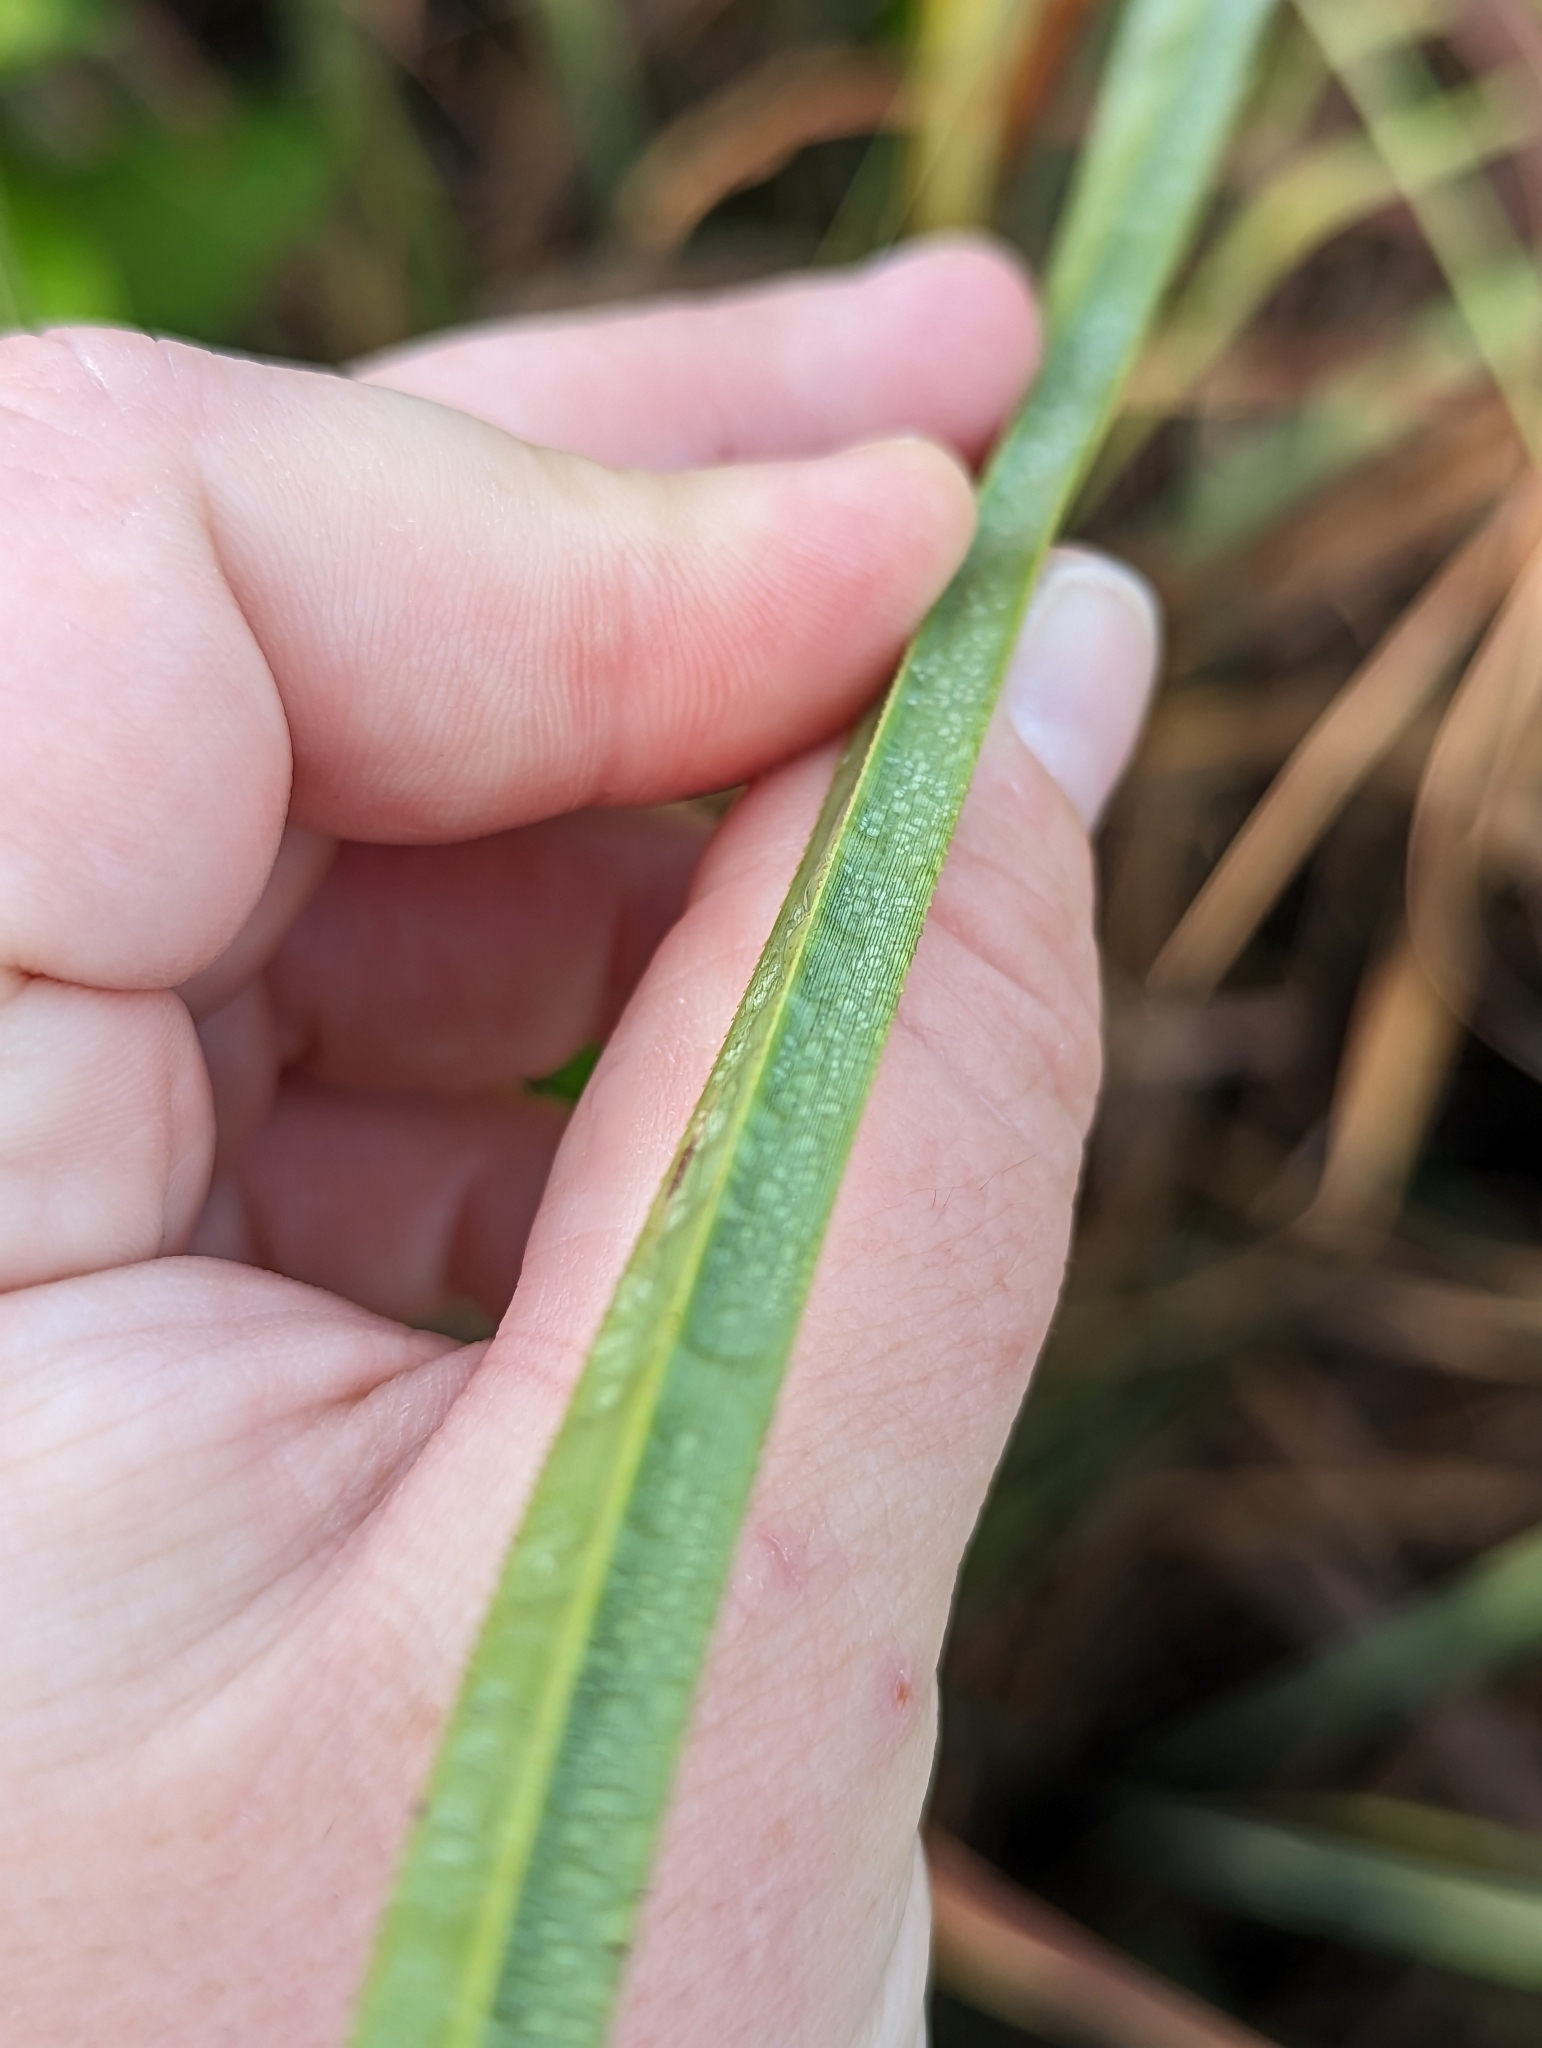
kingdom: Plantae
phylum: Tracheophyta
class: Liliopsida
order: Poales
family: Cyperaceae
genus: Cladium
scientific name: Cladium mariscus
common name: Great fen-sedge
